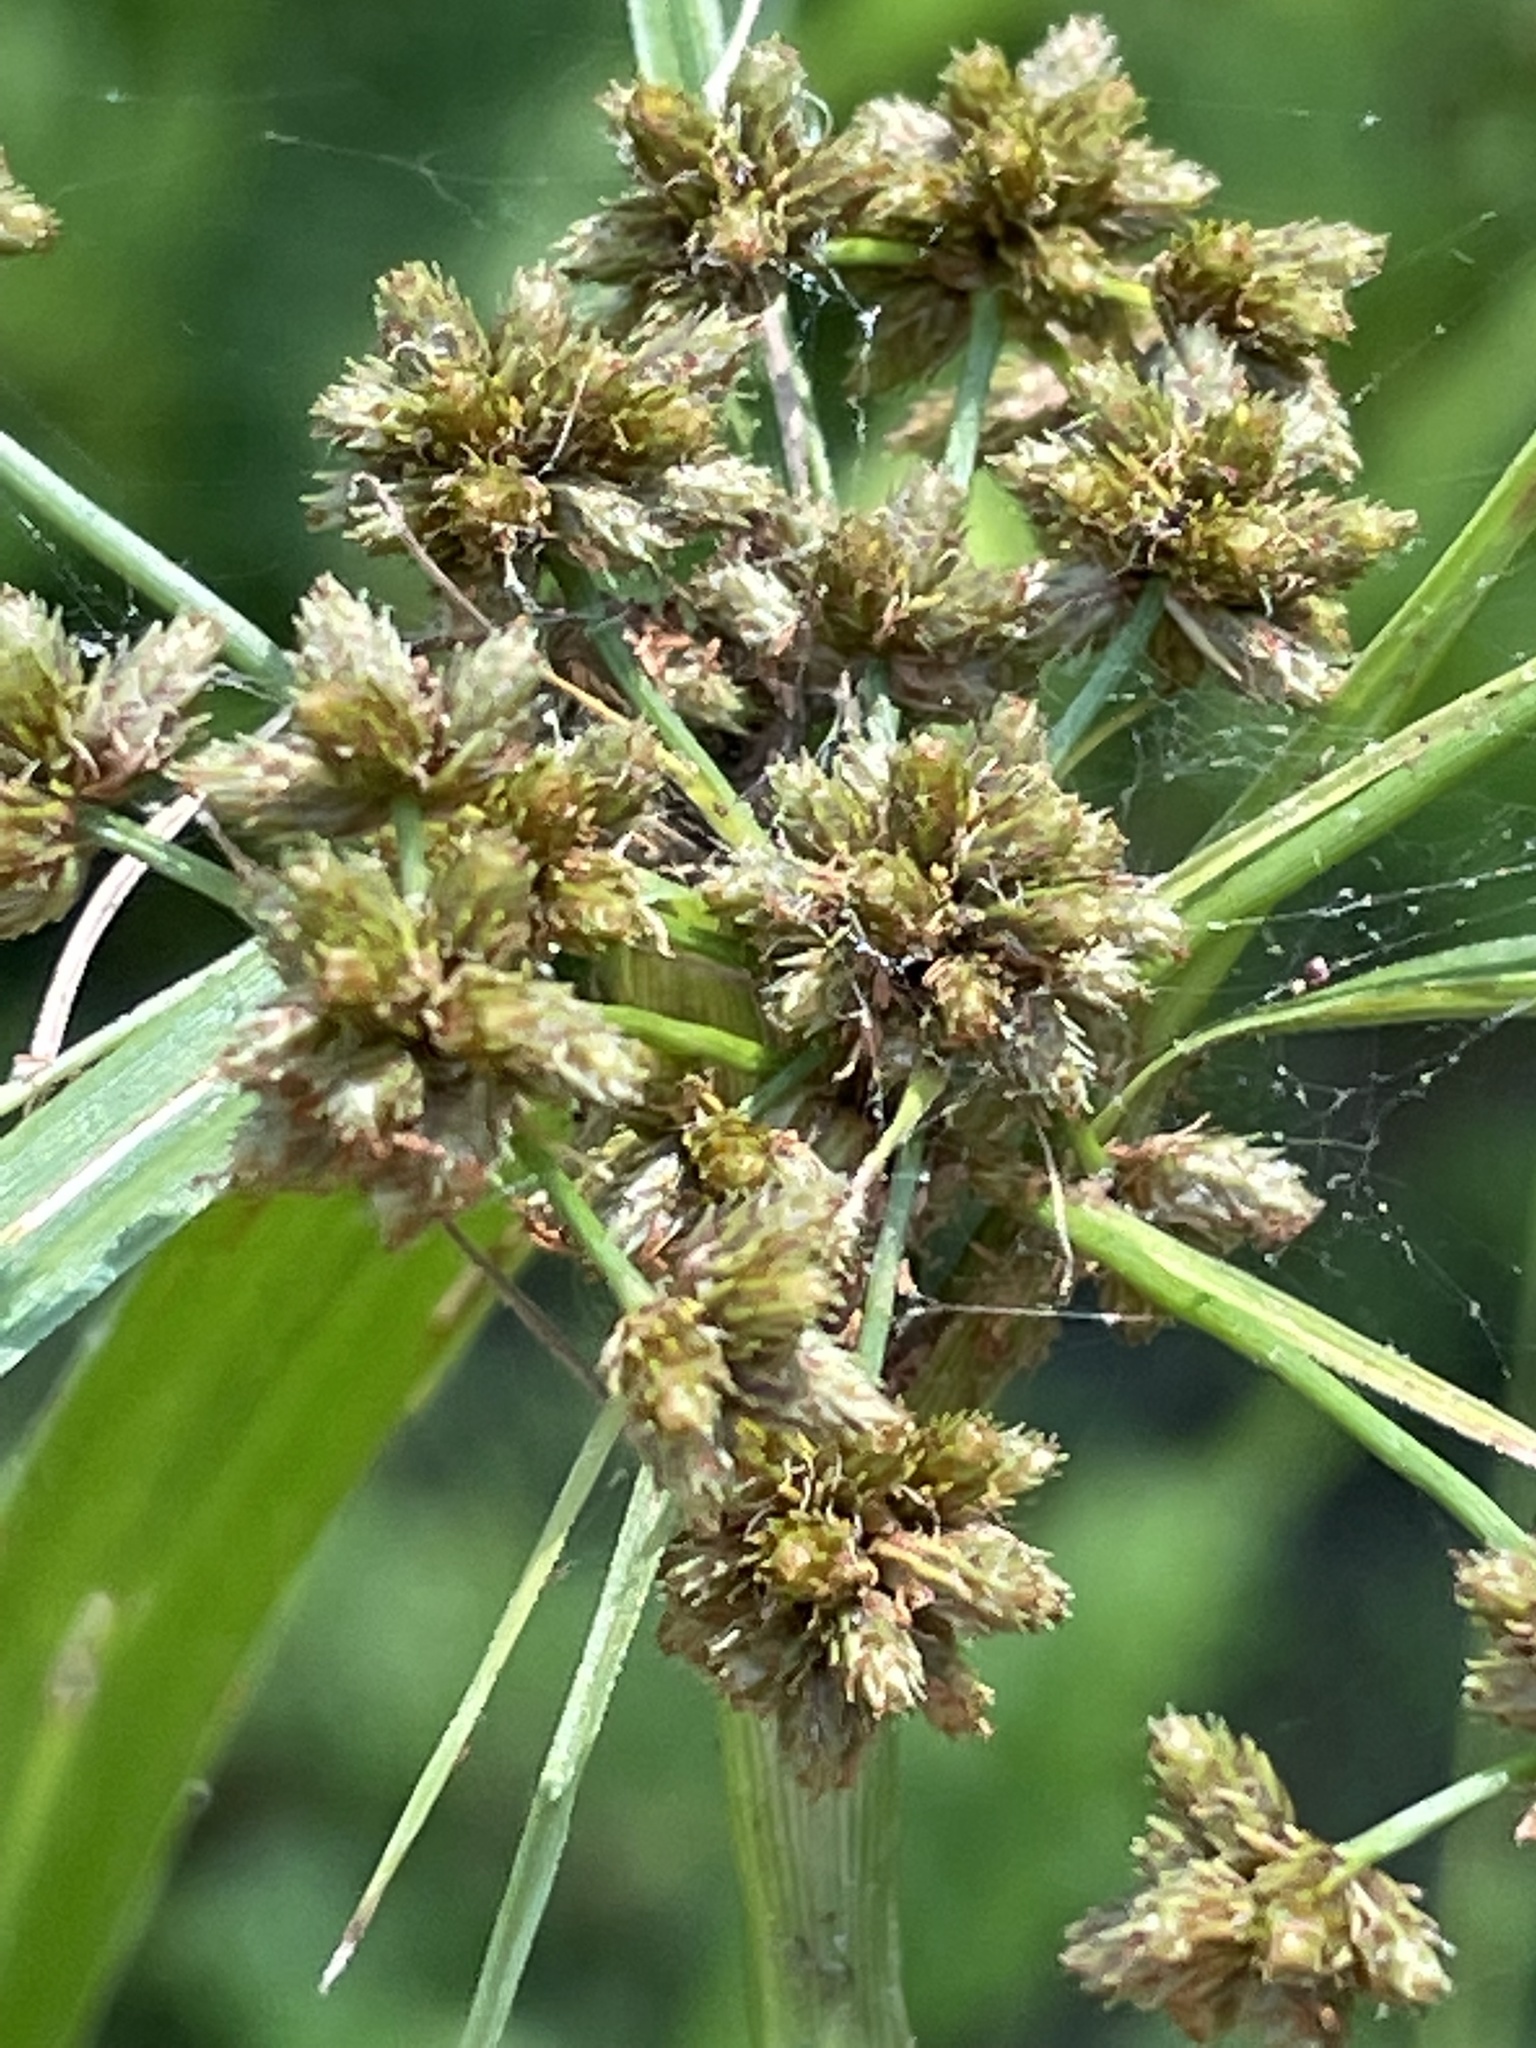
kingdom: Plantae
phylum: Tracheophyta
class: Liliopsida
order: Poales
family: Cyperaceae
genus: Scirpus
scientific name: Scirpus georgianus
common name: Bristleless dark-green bulrush
